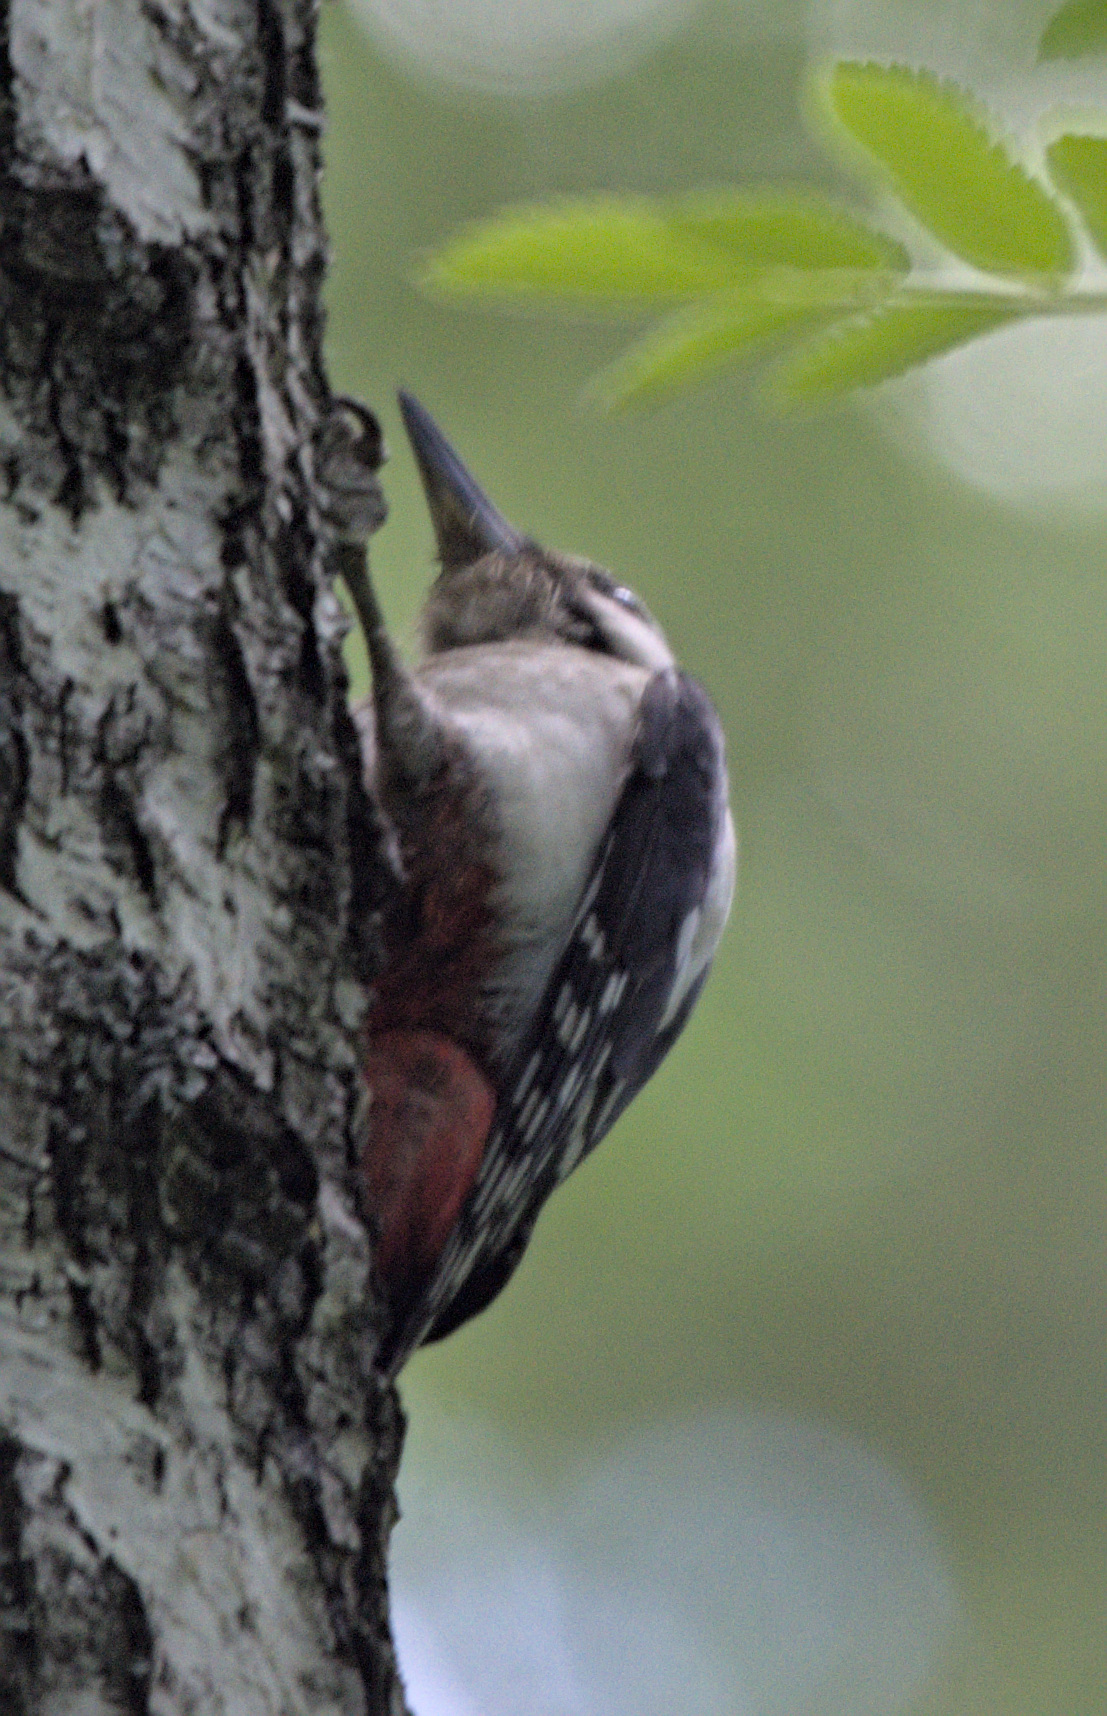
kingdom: Animalia
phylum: Chordata
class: Aves
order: Piciformes
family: Picidae
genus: Dendrocopos
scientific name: Dendrocopos major
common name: Great spotted woodpecker
